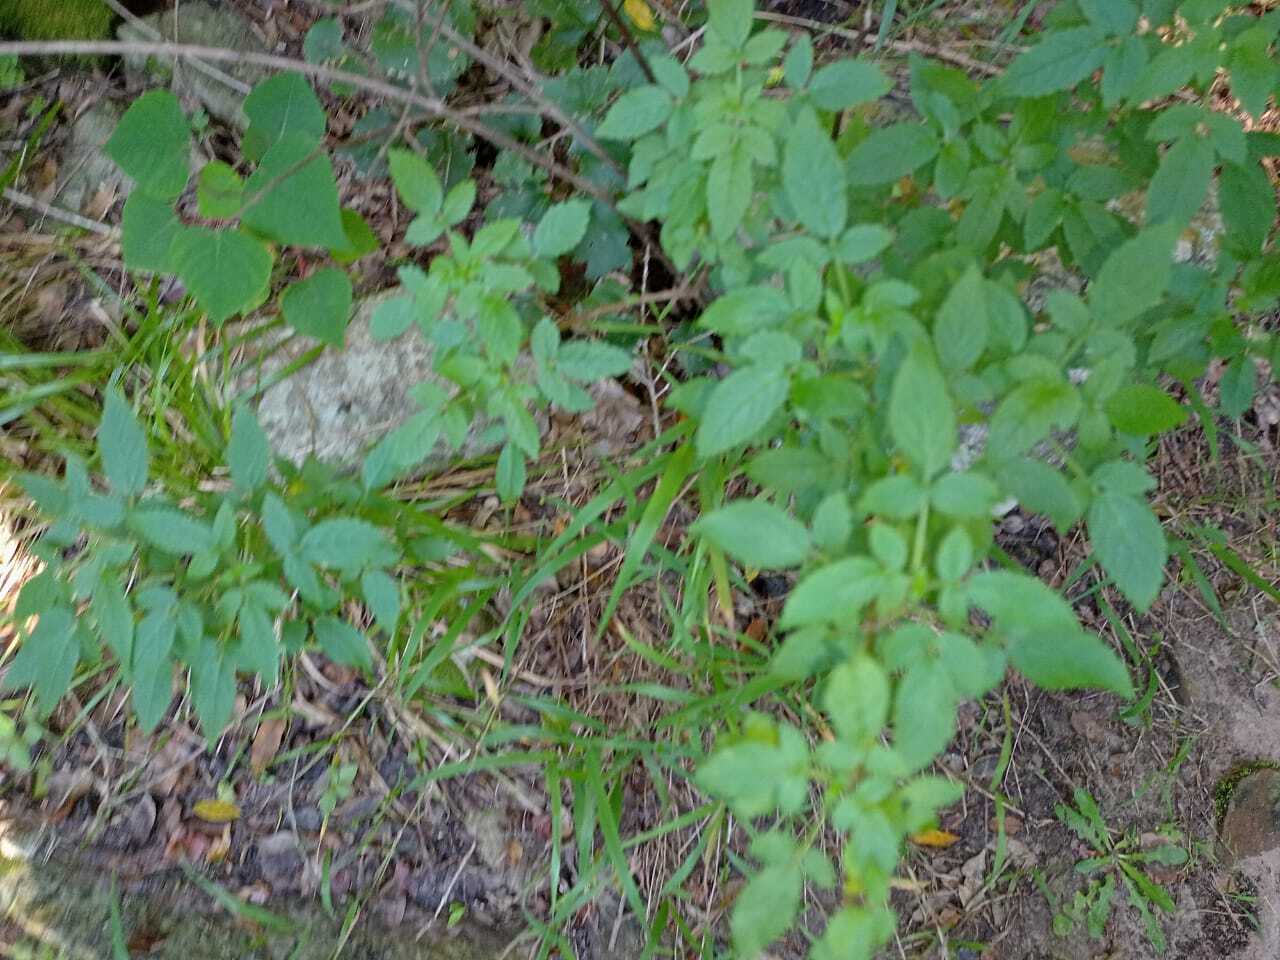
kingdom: Plantae
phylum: Tracheophyta
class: Magnoliopsida
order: Lamiales
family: Lamiaceae
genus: Cedronella
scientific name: Cedronella canariensis
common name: Canary islands balm
